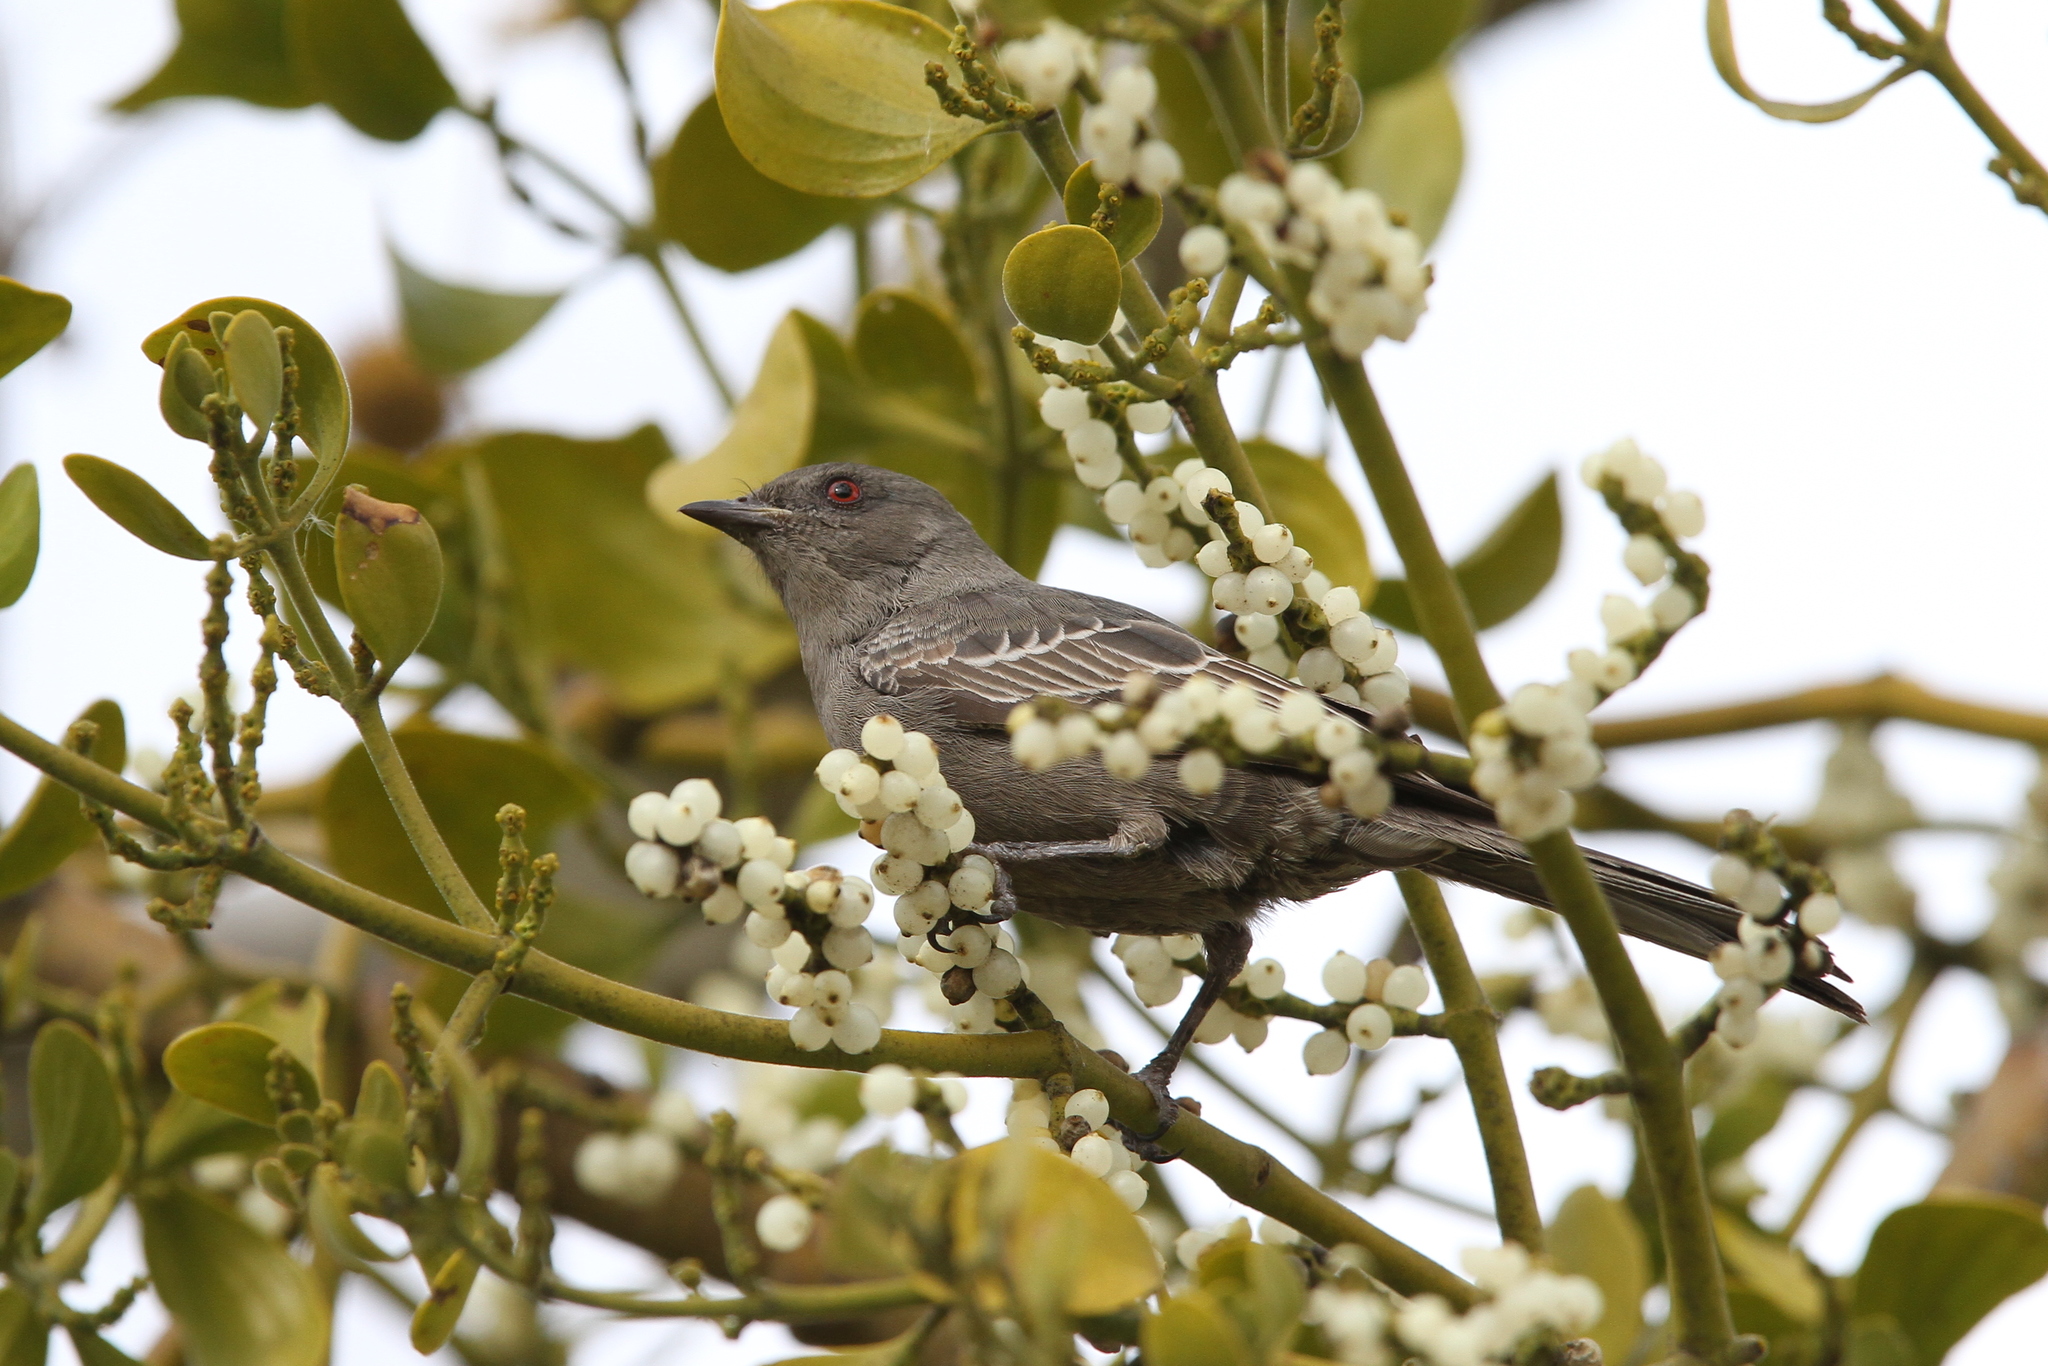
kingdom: Animalia
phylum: Chordata
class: Aves
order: Passeriformes
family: Ptilogonatidae
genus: Phainopepla
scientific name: Phainopepla nitens
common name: Phainopepla
